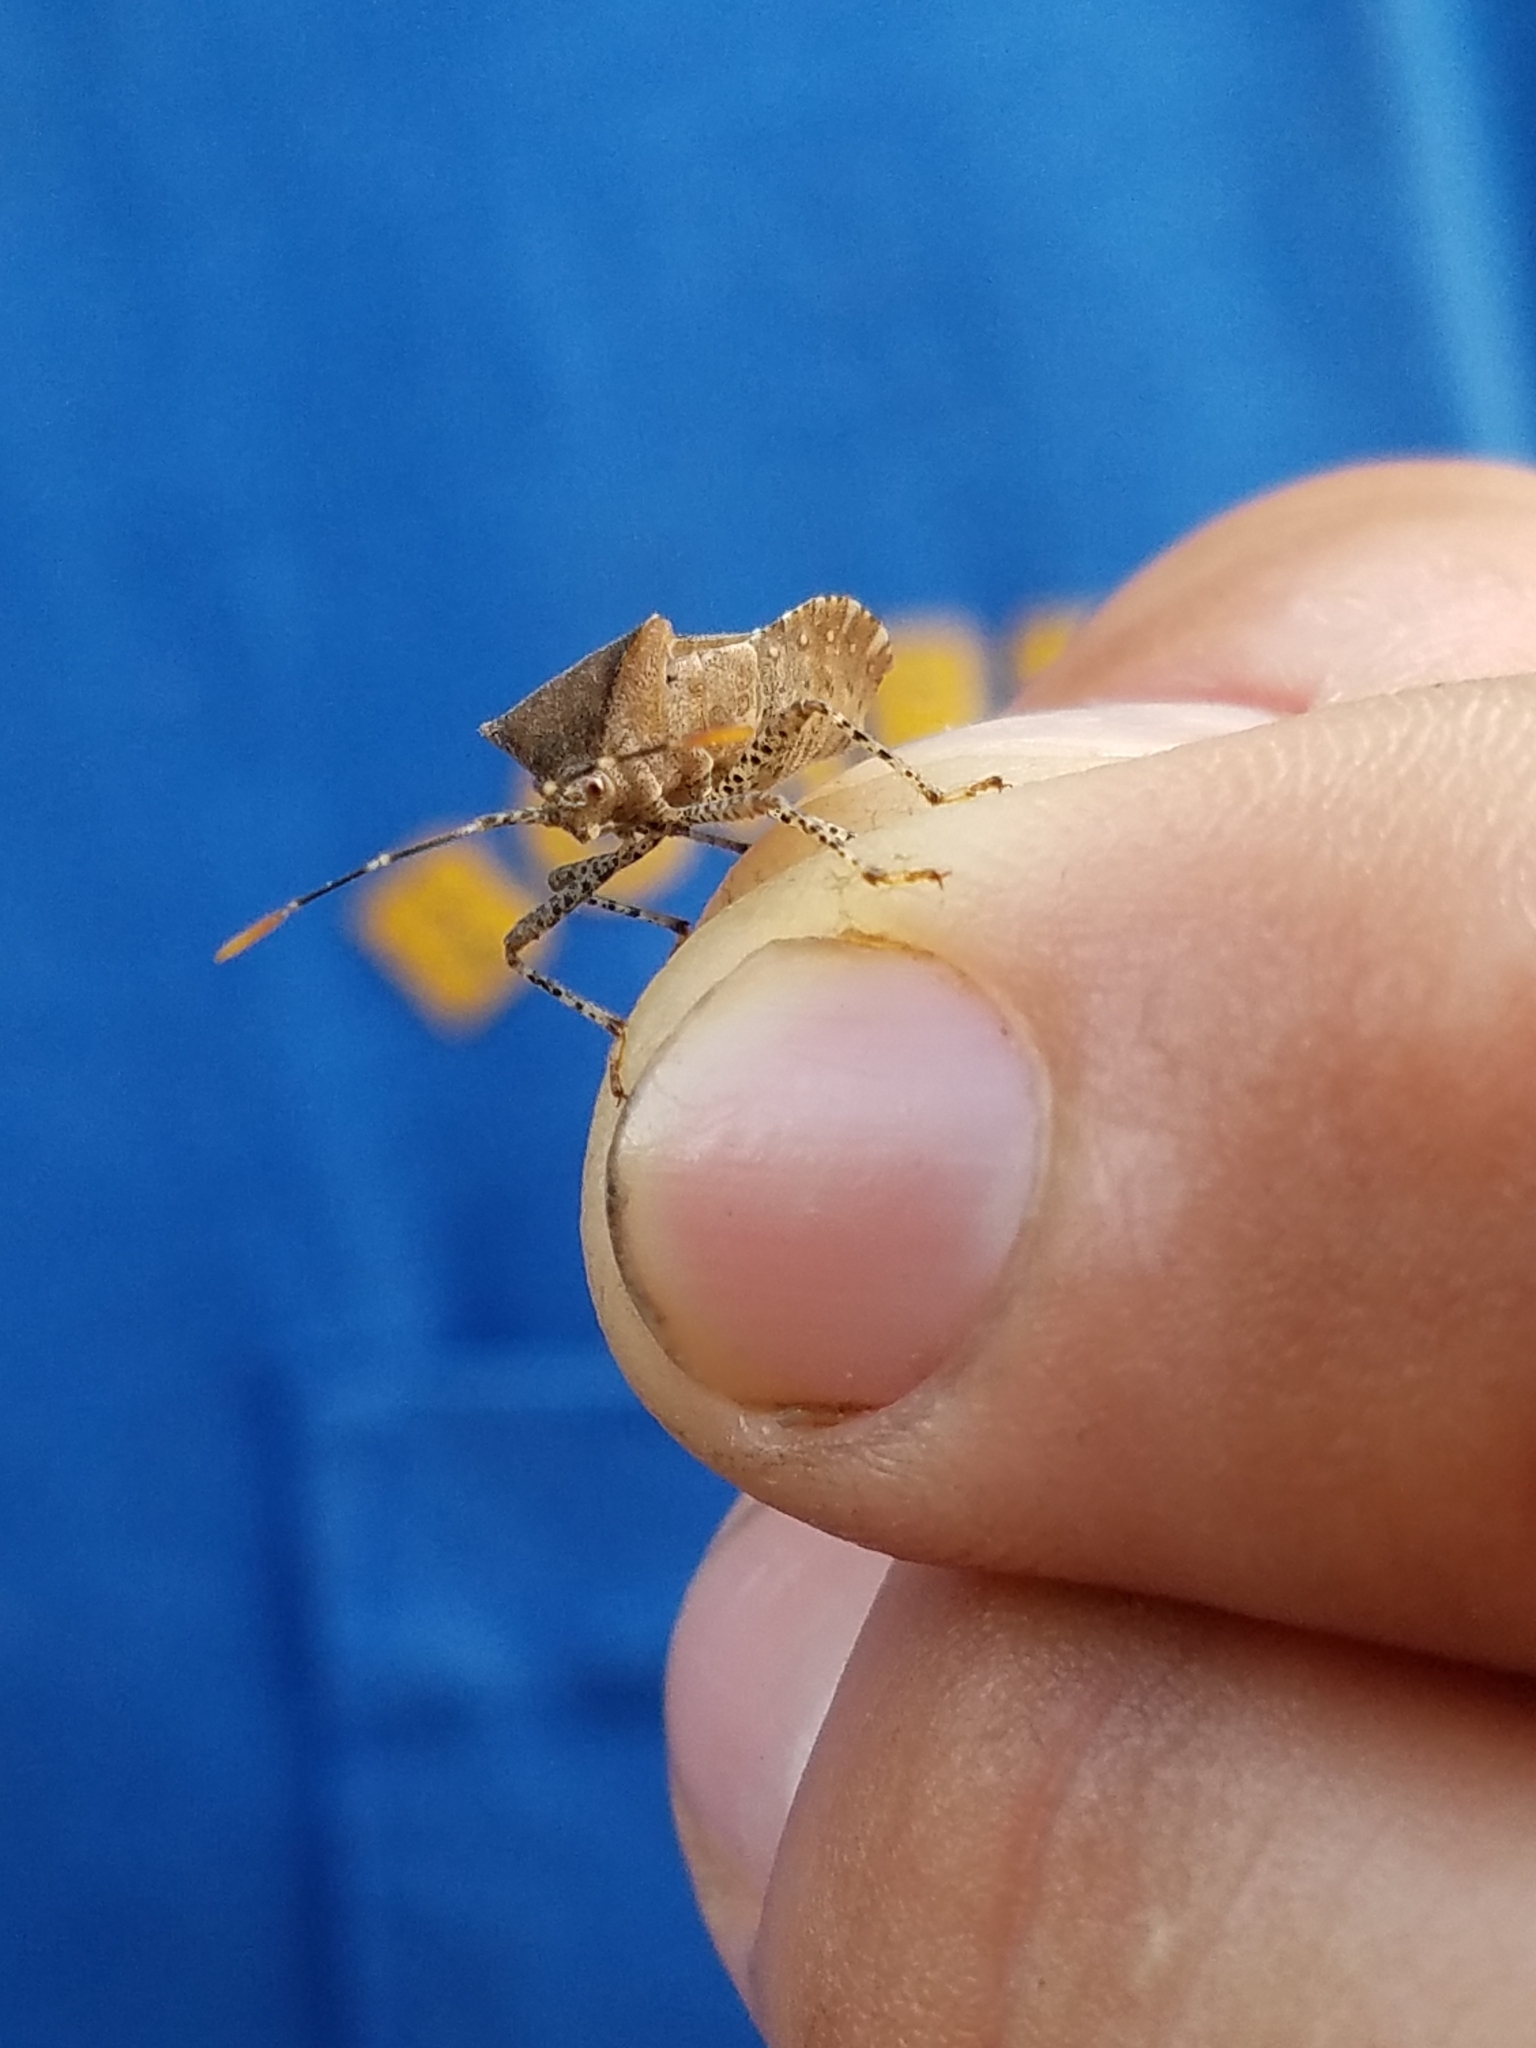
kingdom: Animalia
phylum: Arthropoda
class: Insecta
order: Hemiptera
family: Coreidae
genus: Anasa
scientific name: Anasa armigera
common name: Horned squash bug
